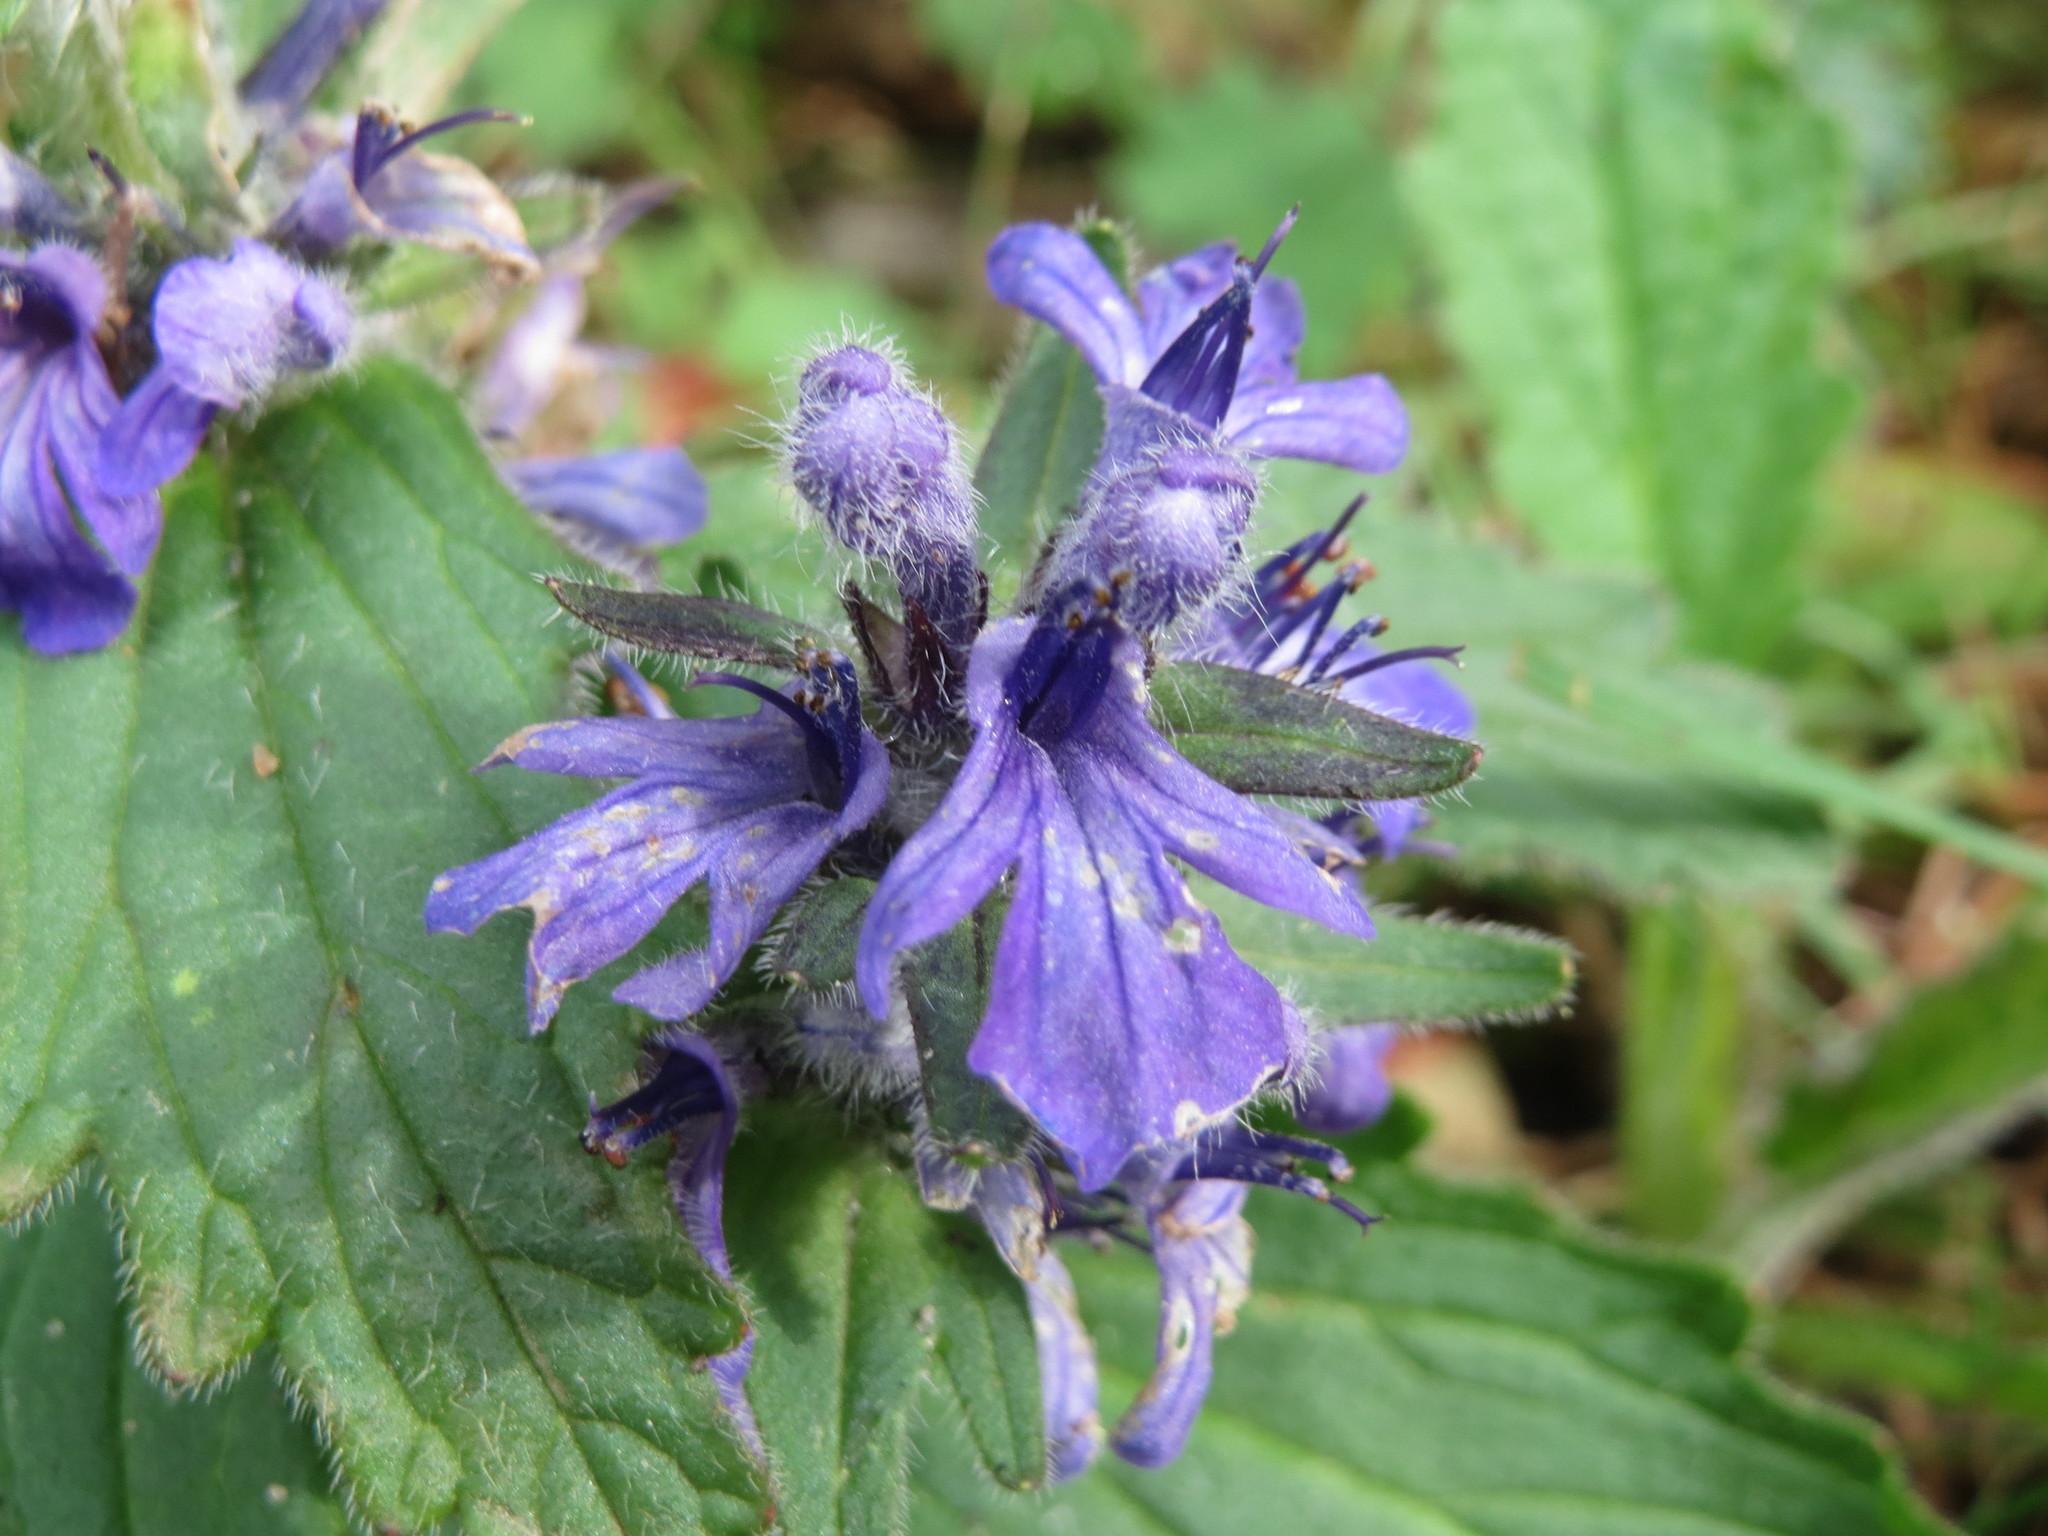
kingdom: Plantae
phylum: Tracheophyta
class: Magnoliopsida
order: Lamiales
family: Lamiaceae
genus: Ajuga
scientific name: Ajuga reptans
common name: Bugle
